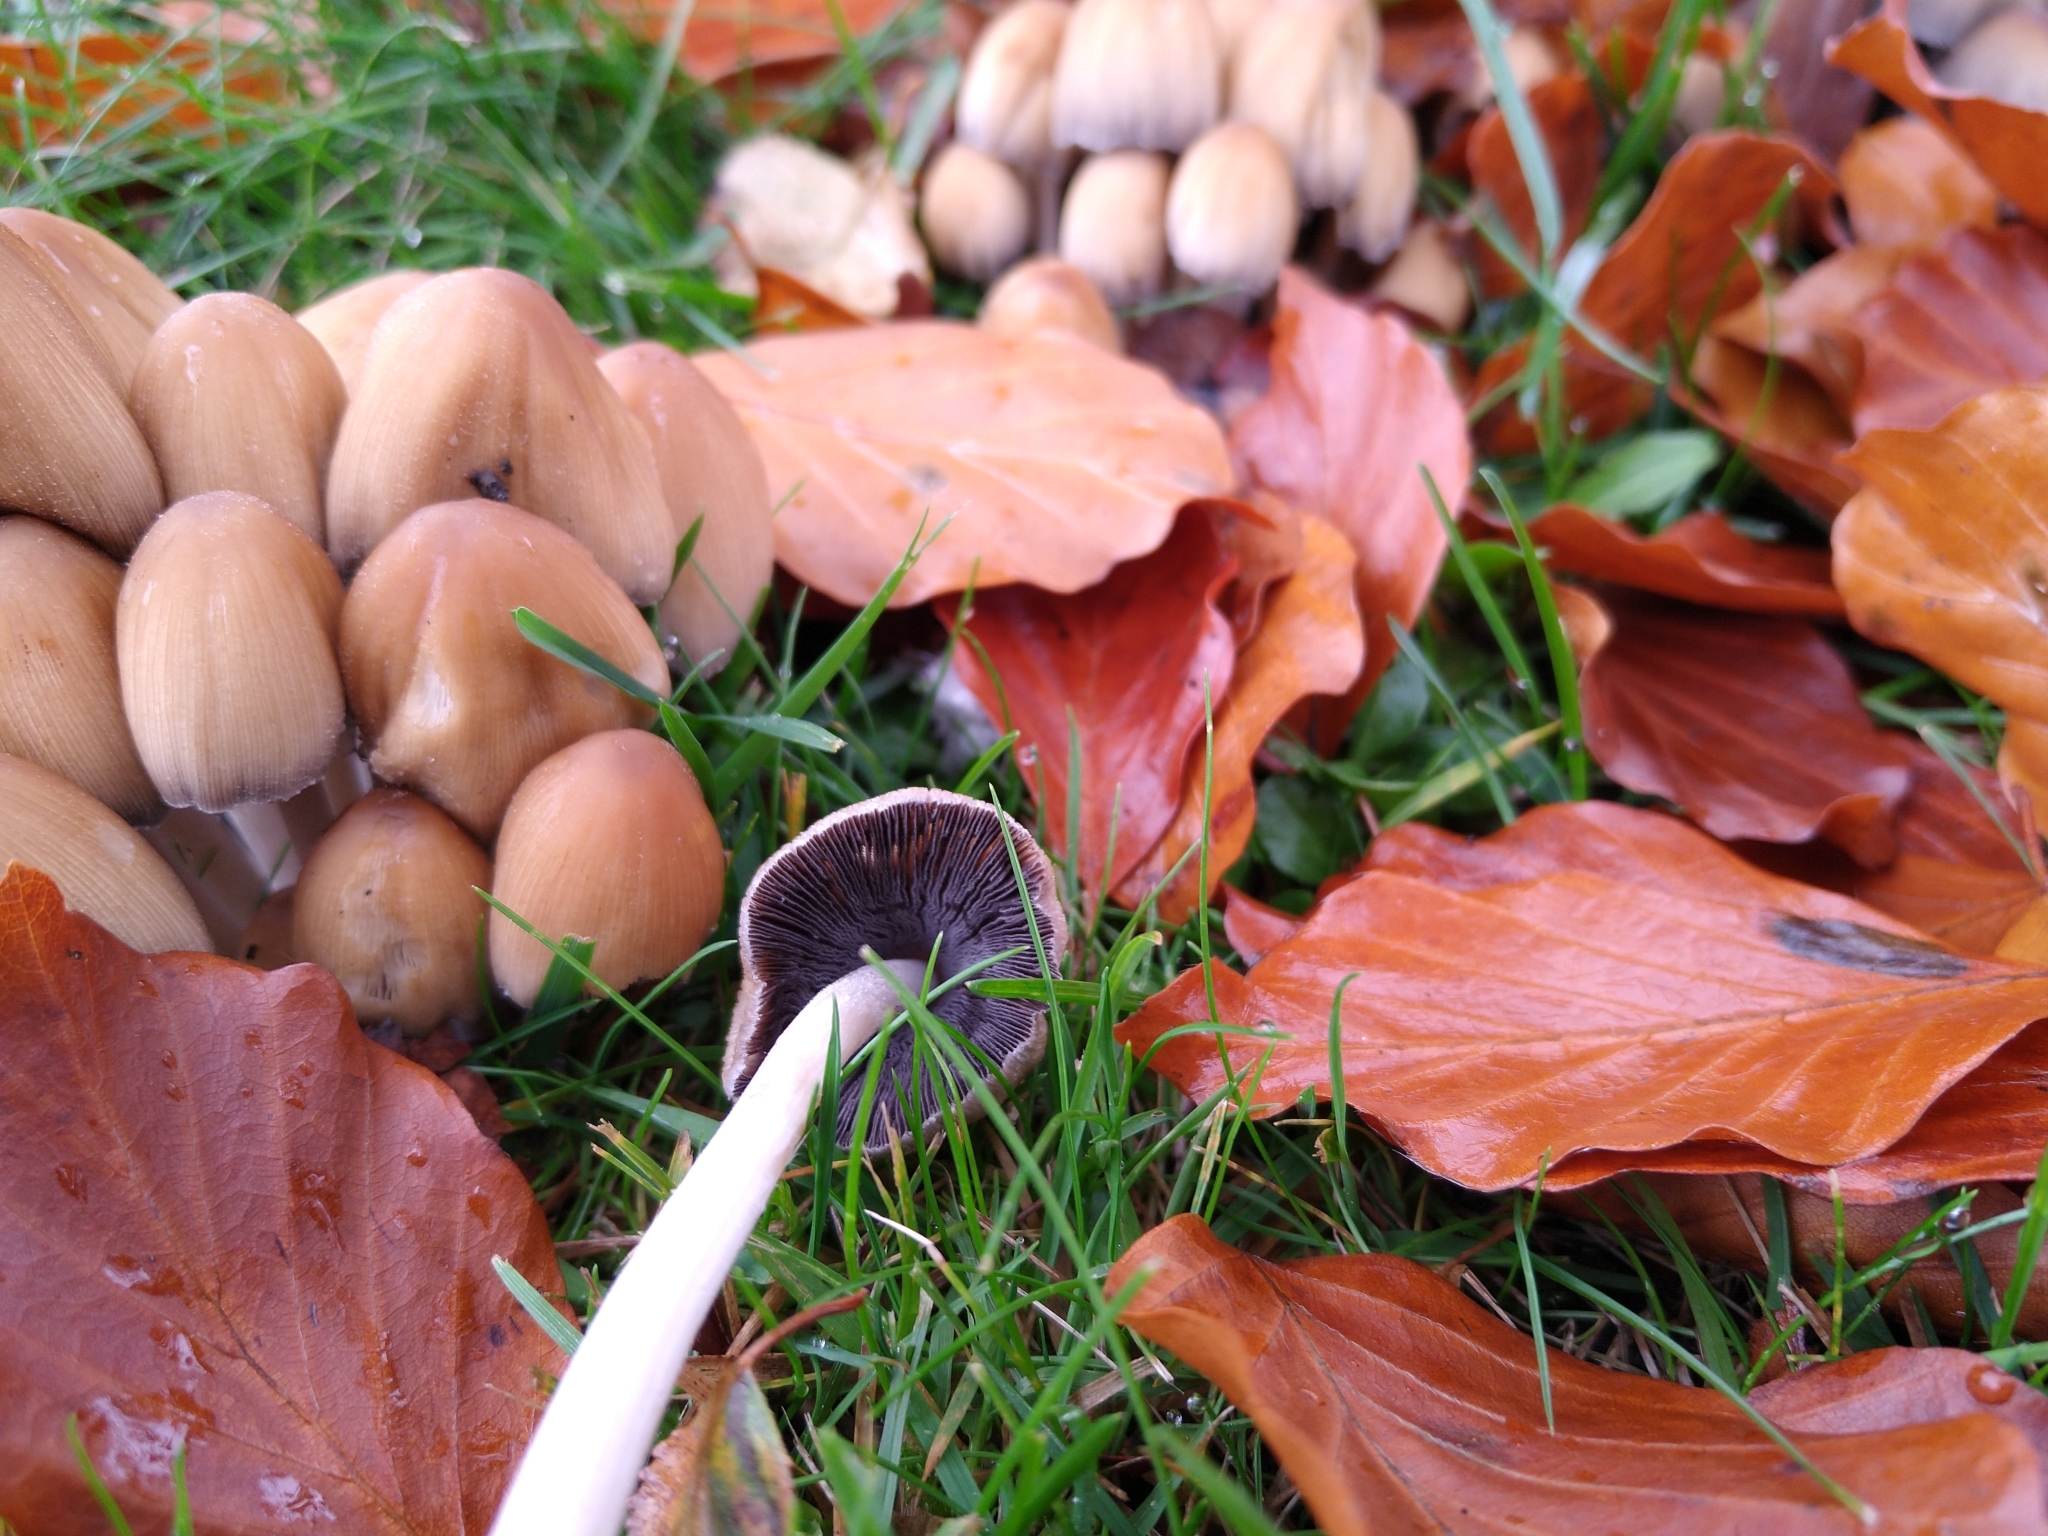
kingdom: Fungi
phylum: Basidiomycota
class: Agaricomycetes
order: Agaricales
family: Psathyrellaceae
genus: Coprinellus
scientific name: Coprinellus micaceus
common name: Glistening ink-cap
